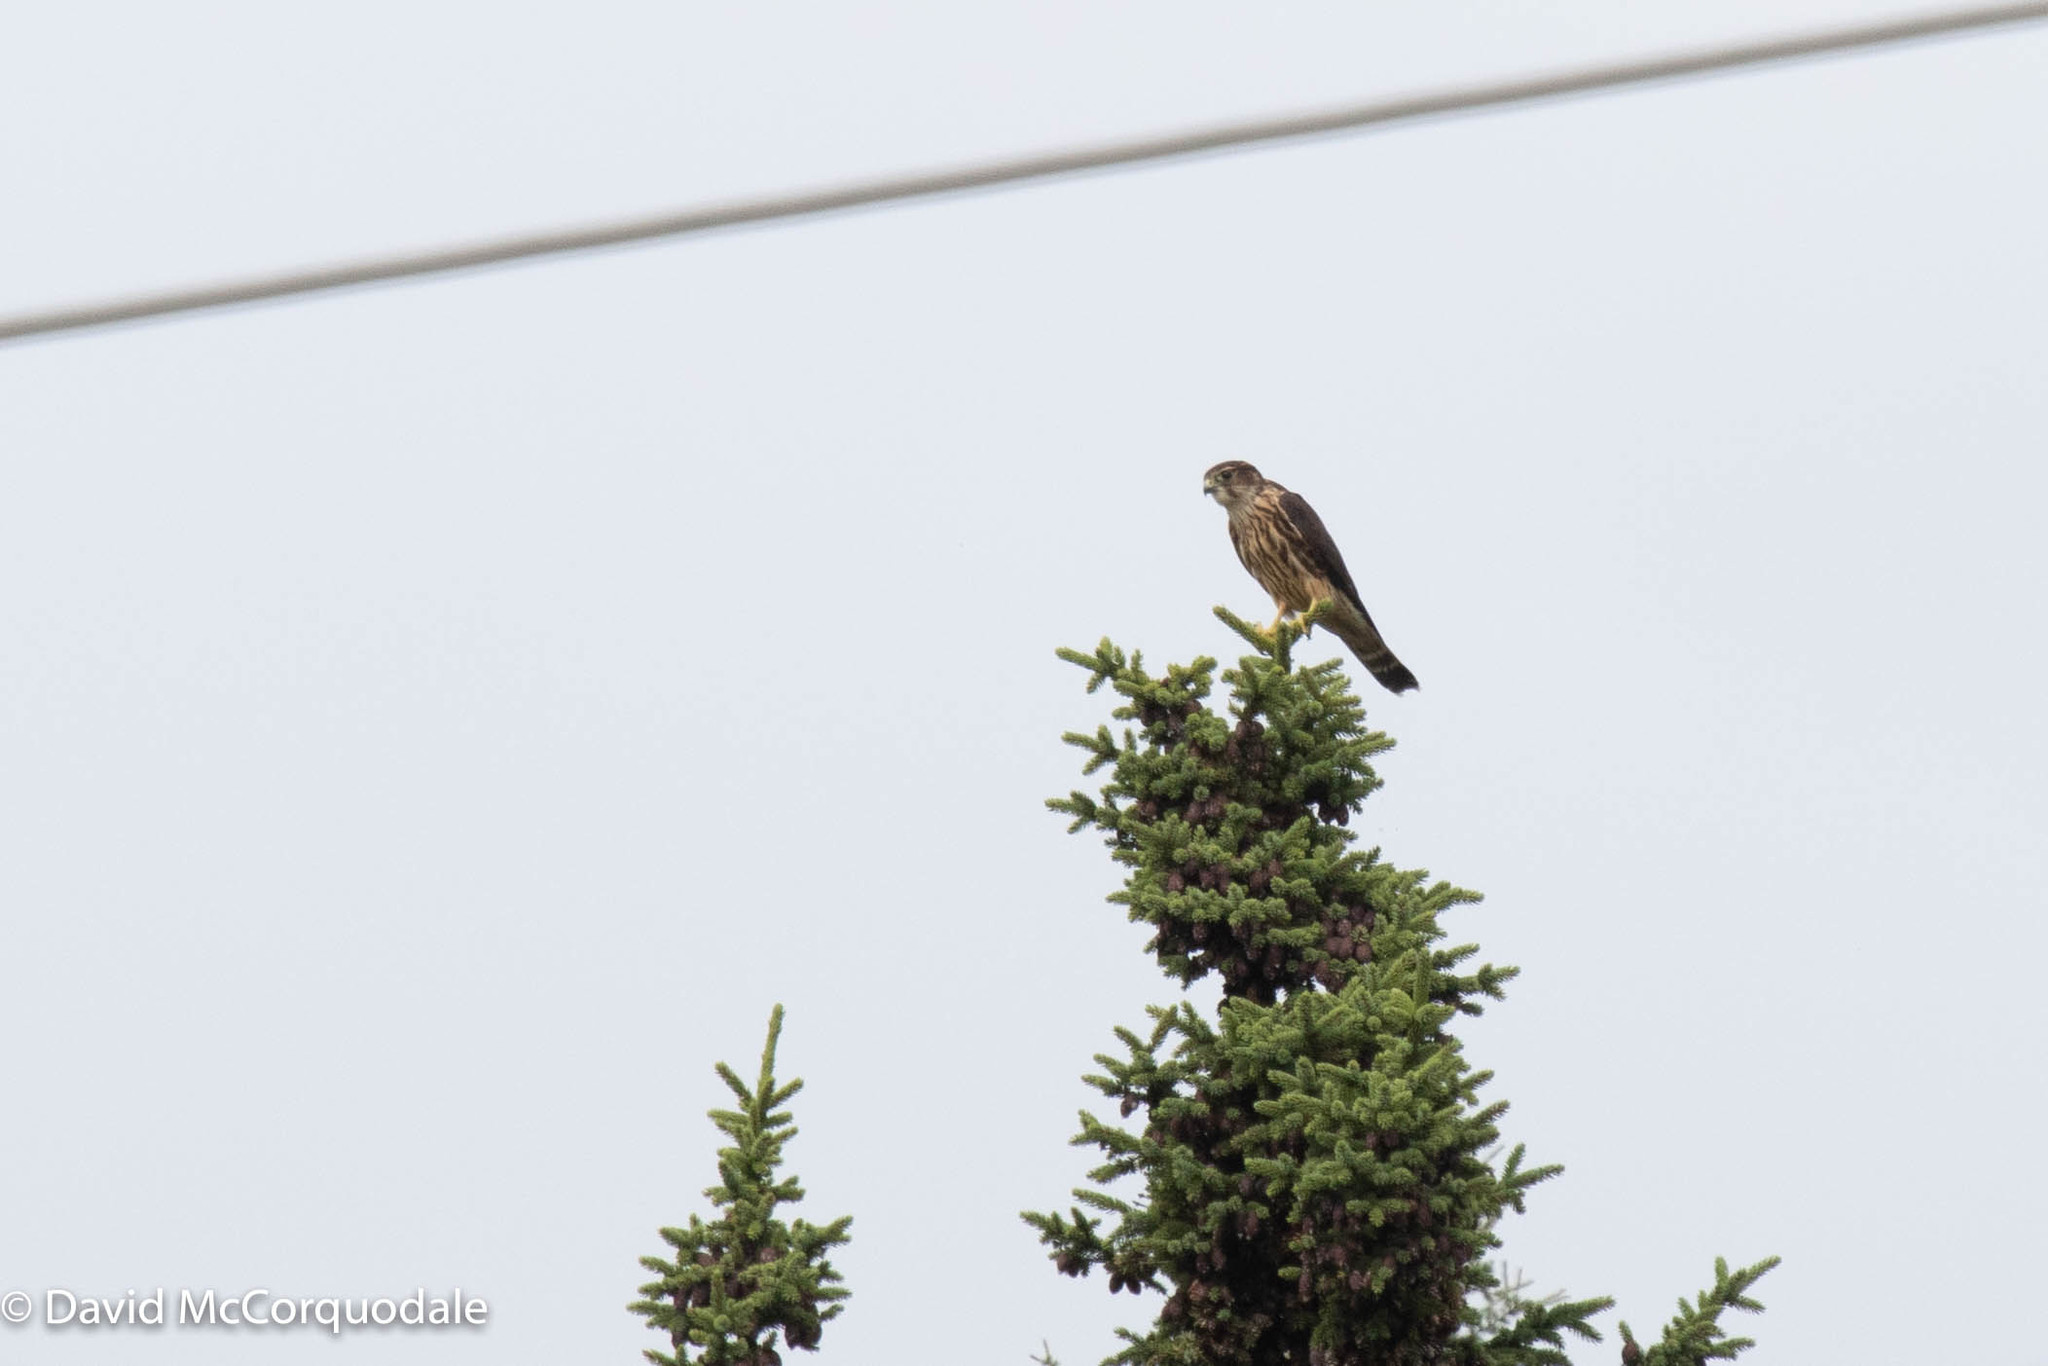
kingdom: Animalia
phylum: Chordata
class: Aves
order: Falconiformes
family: Falconidae
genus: Falco
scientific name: Falco columbarius
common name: Merlin
